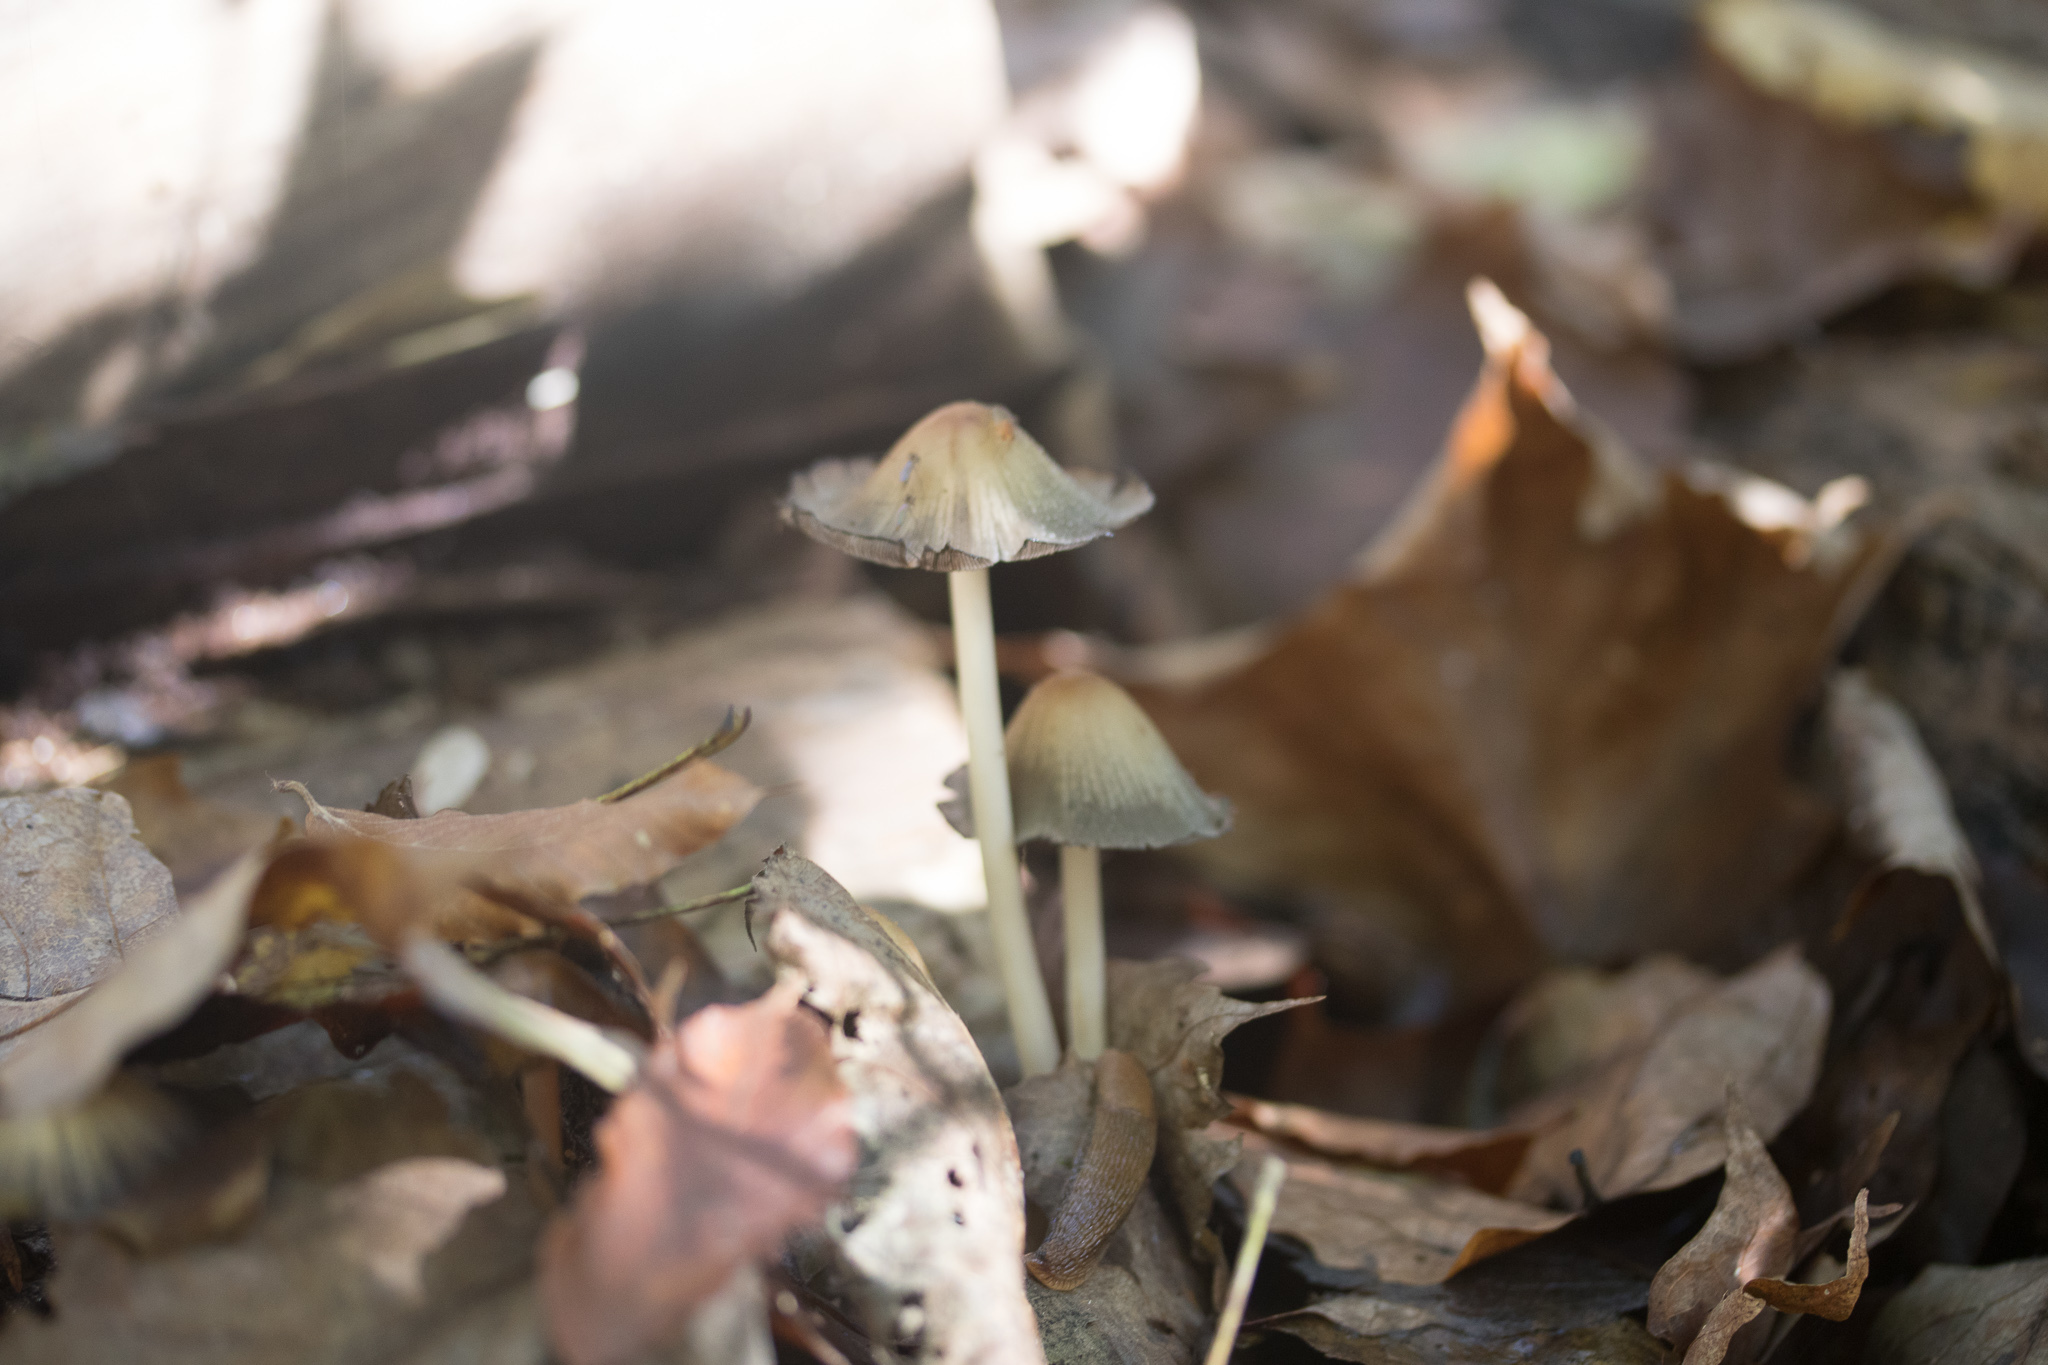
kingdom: Fungi
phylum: Basidiomycota
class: Agaricomycetes
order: Agaricales
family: Psathyrellaceae
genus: Coprinellus
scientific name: Coprinellus micaceus
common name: Glistening ink-cap
